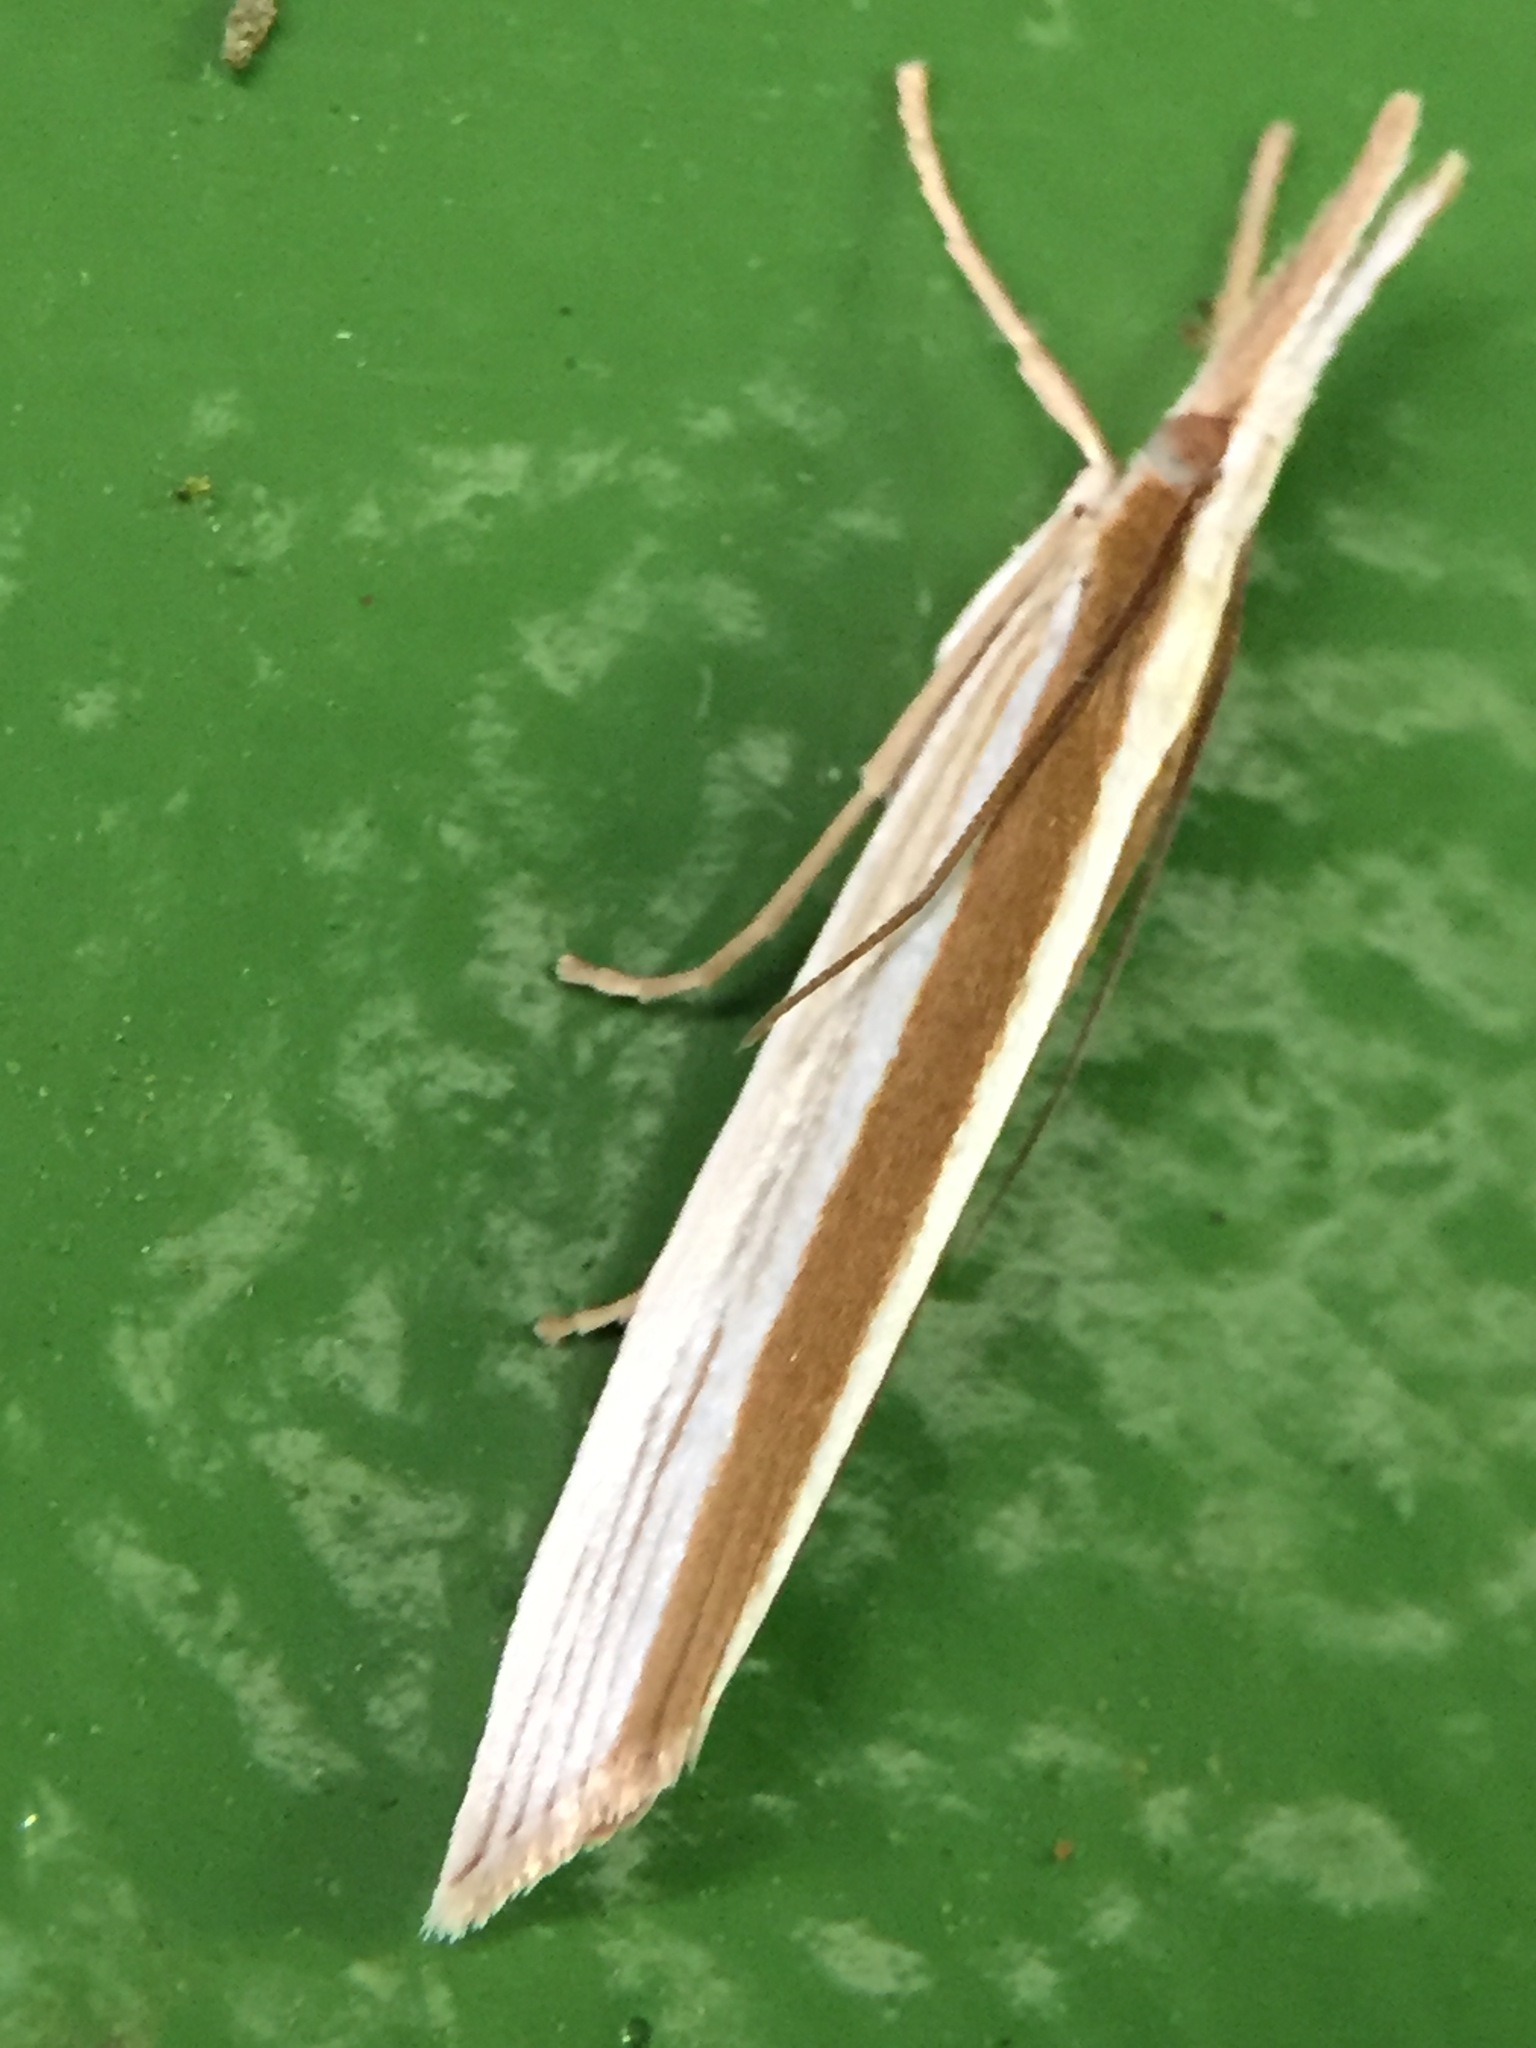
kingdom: Animalia
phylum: Arthropoda
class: Insecta
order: Lepidoptera
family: Crambidae
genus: Orocrambus
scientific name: Orocrambus angustipennis
